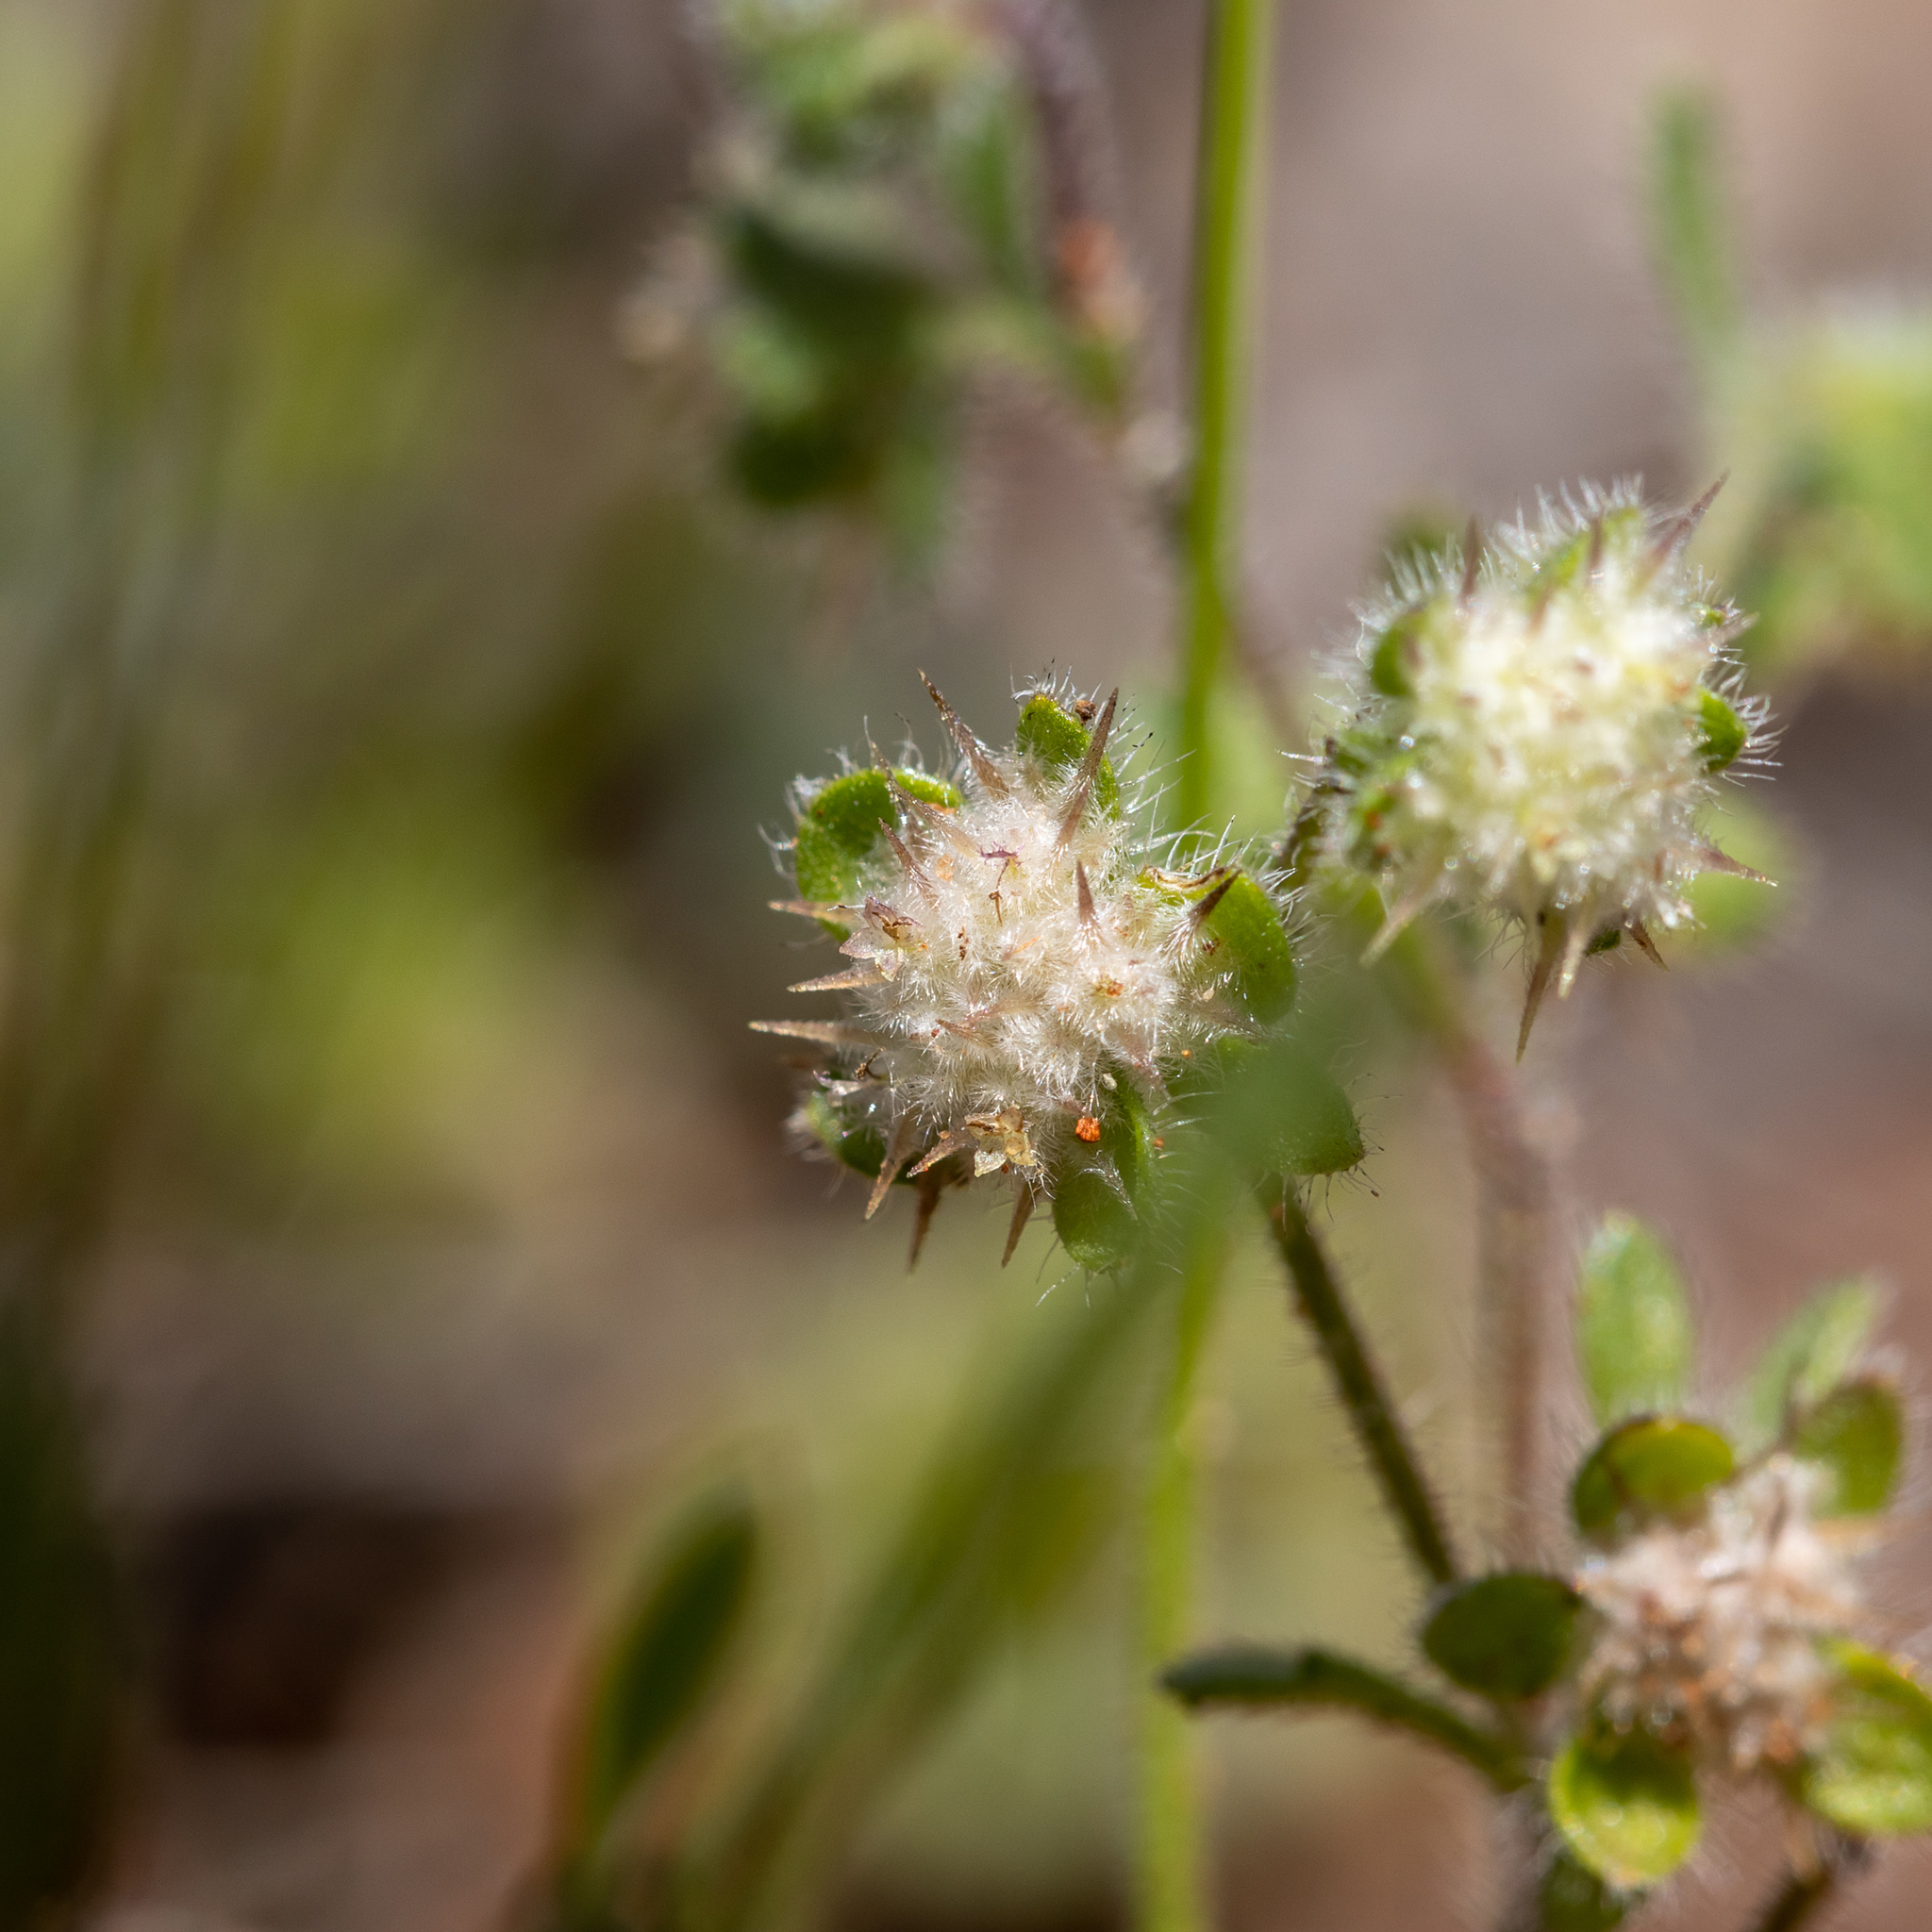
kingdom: Plantae
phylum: Tracheophyta
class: Magnoliopsida
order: Asterales
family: Asteraceae
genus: Calotis
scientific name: Calotis hispidula
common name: Bogan-flea
